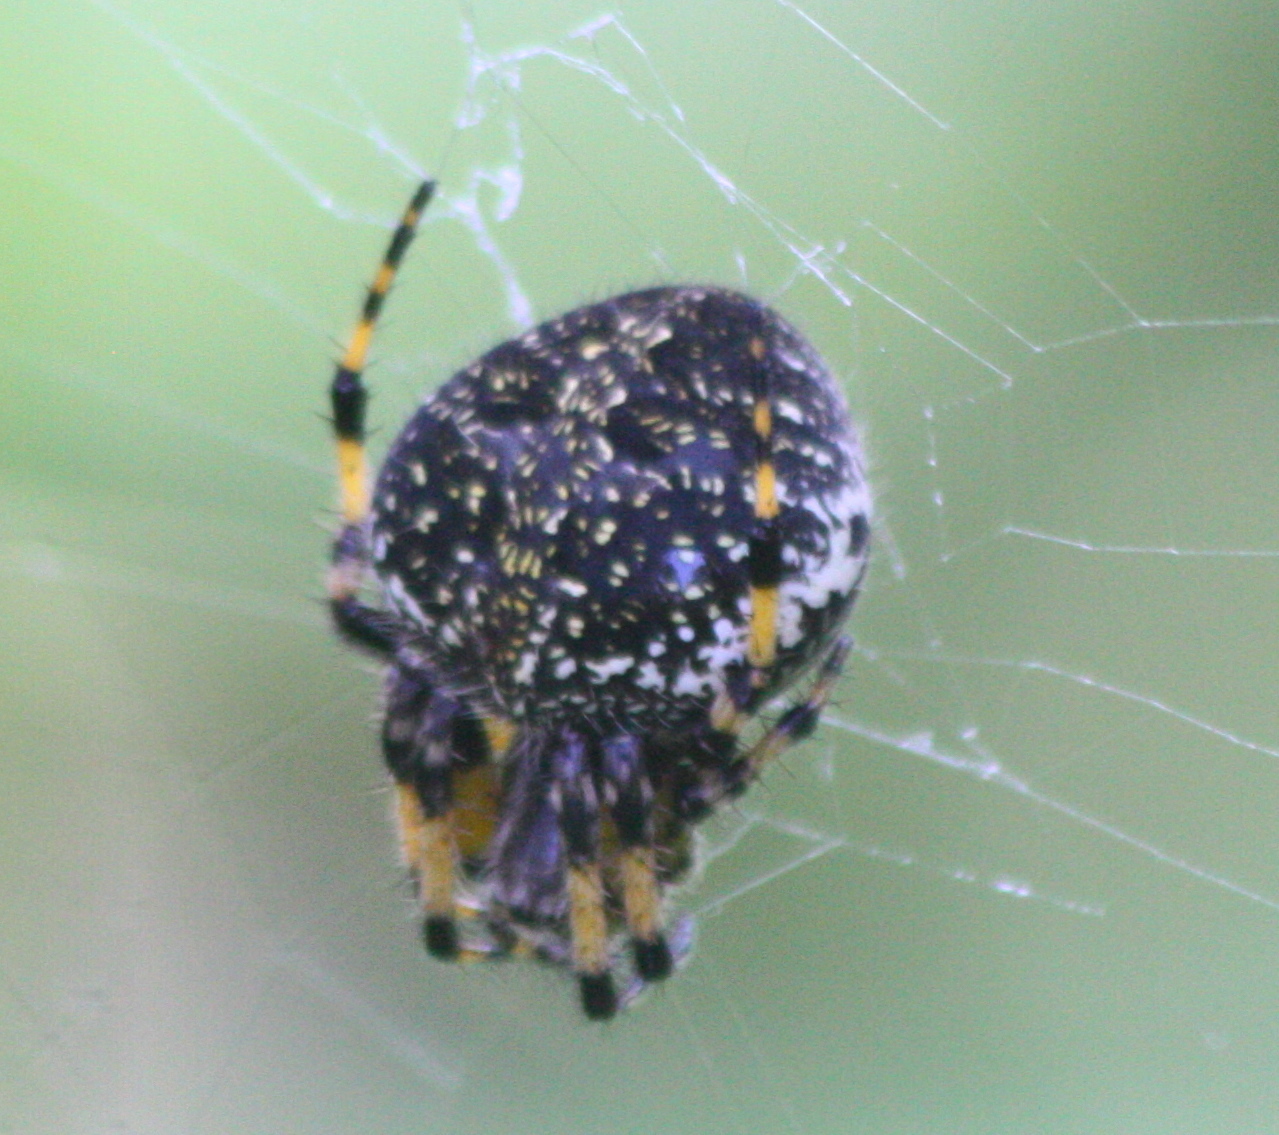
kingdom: Animalia
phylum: Arthropoda
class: Arachnida
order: Araneae
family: Araneidae
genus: Neoscona
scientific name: Neoscona orizabensis
